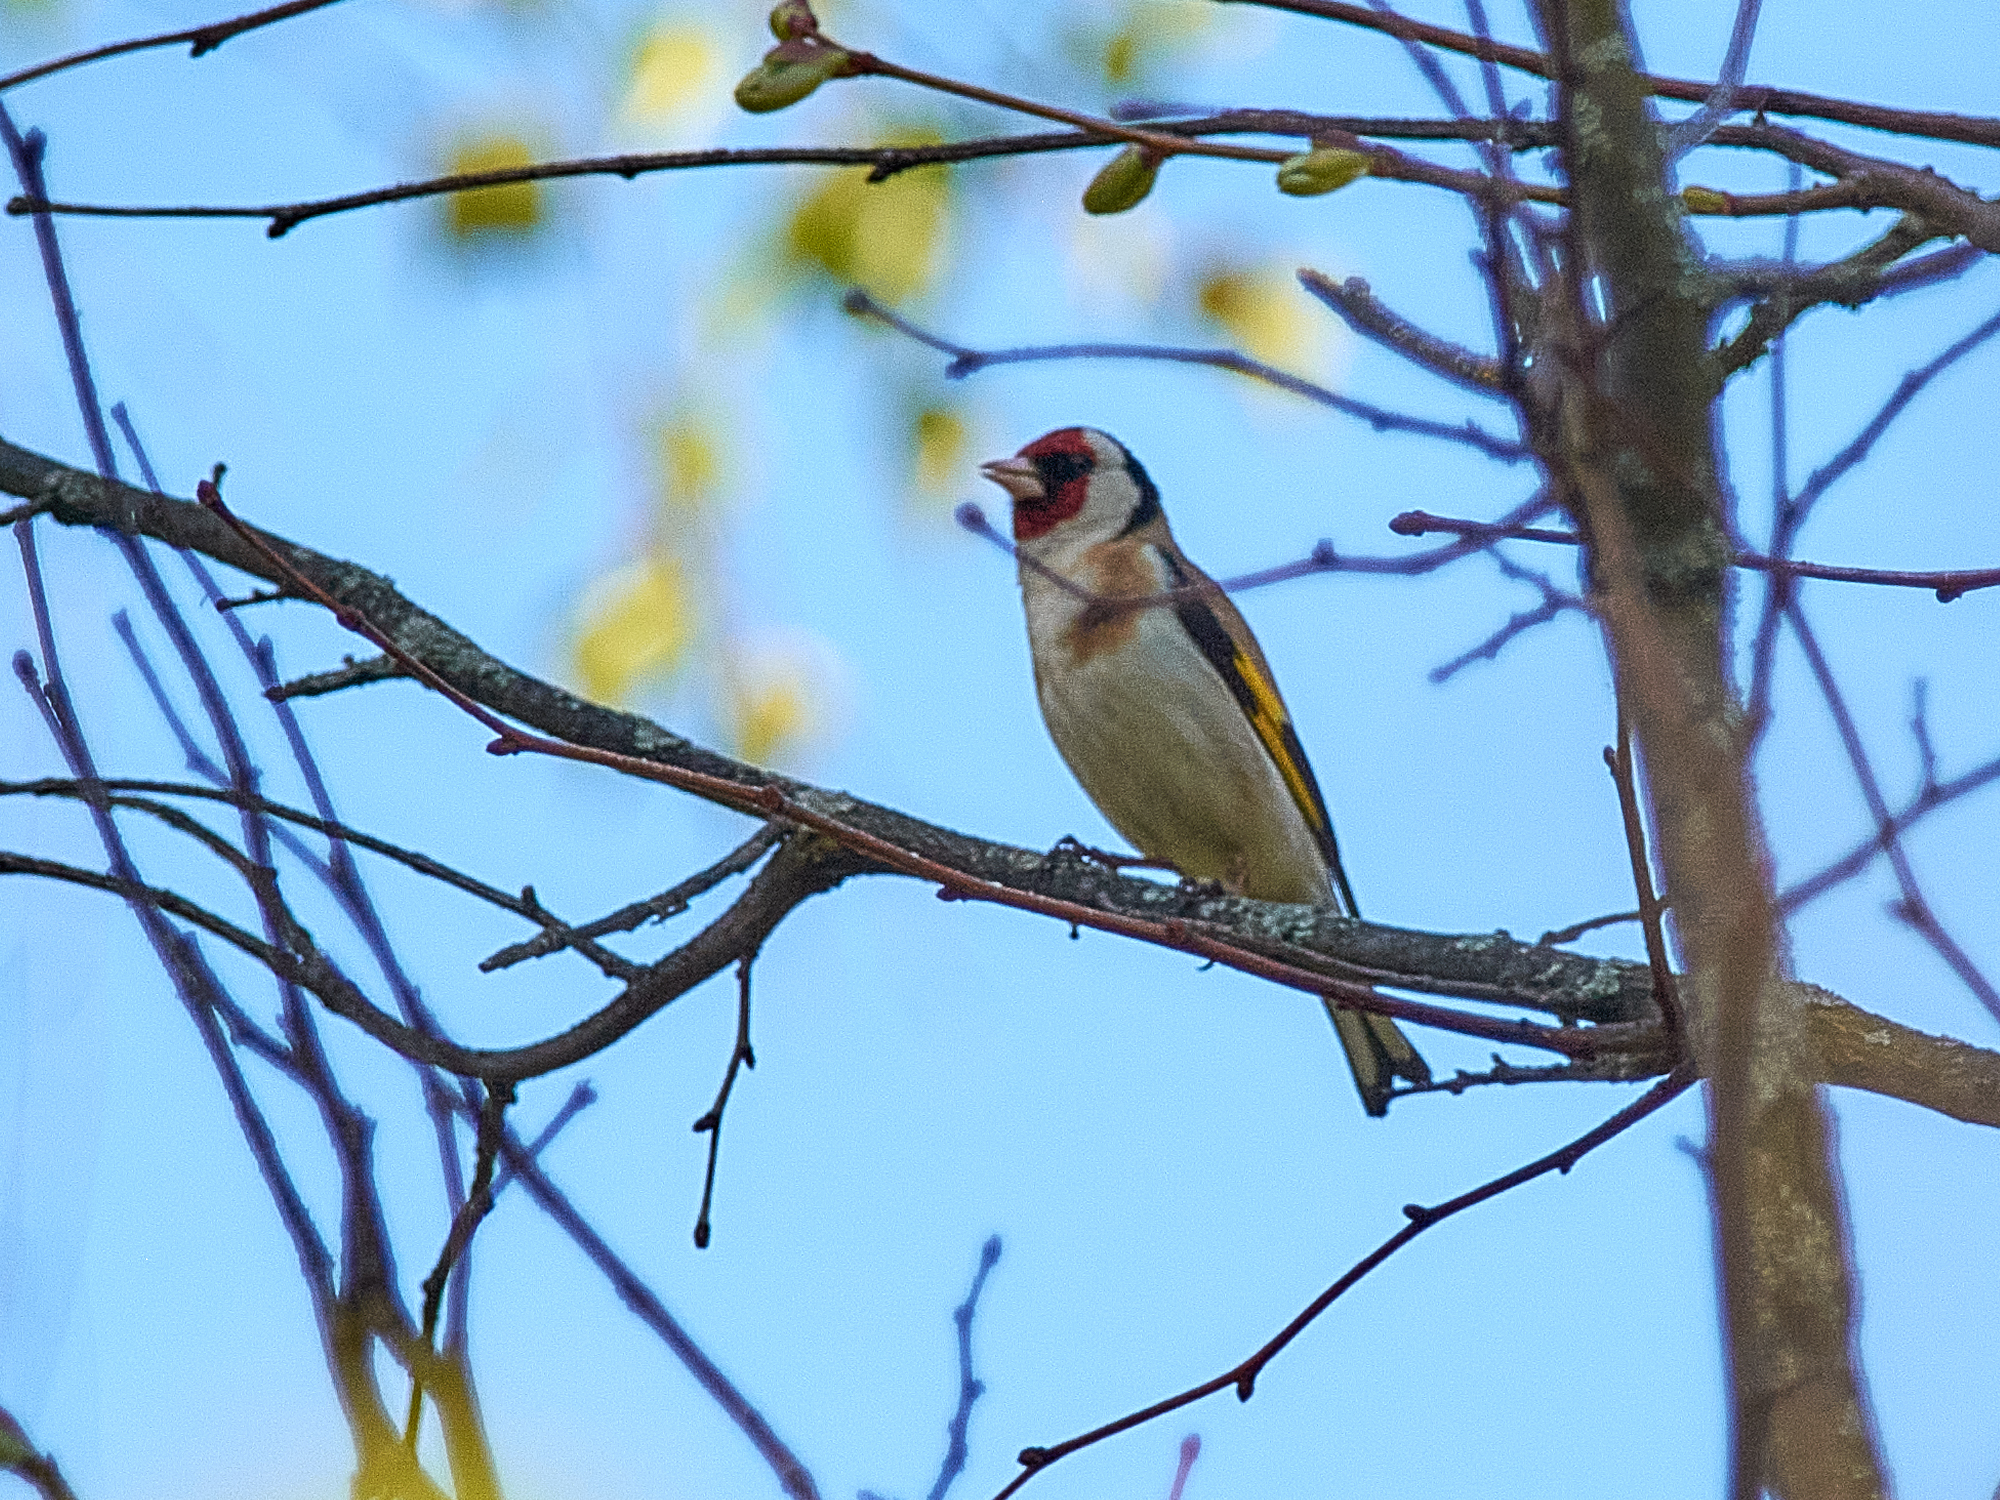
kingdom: Animalia
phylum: Chordata
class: Aves
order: Passeriformes
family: Fringillidae
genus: Carduelis
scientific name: Carduelis carduelis
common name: European goldfinch
